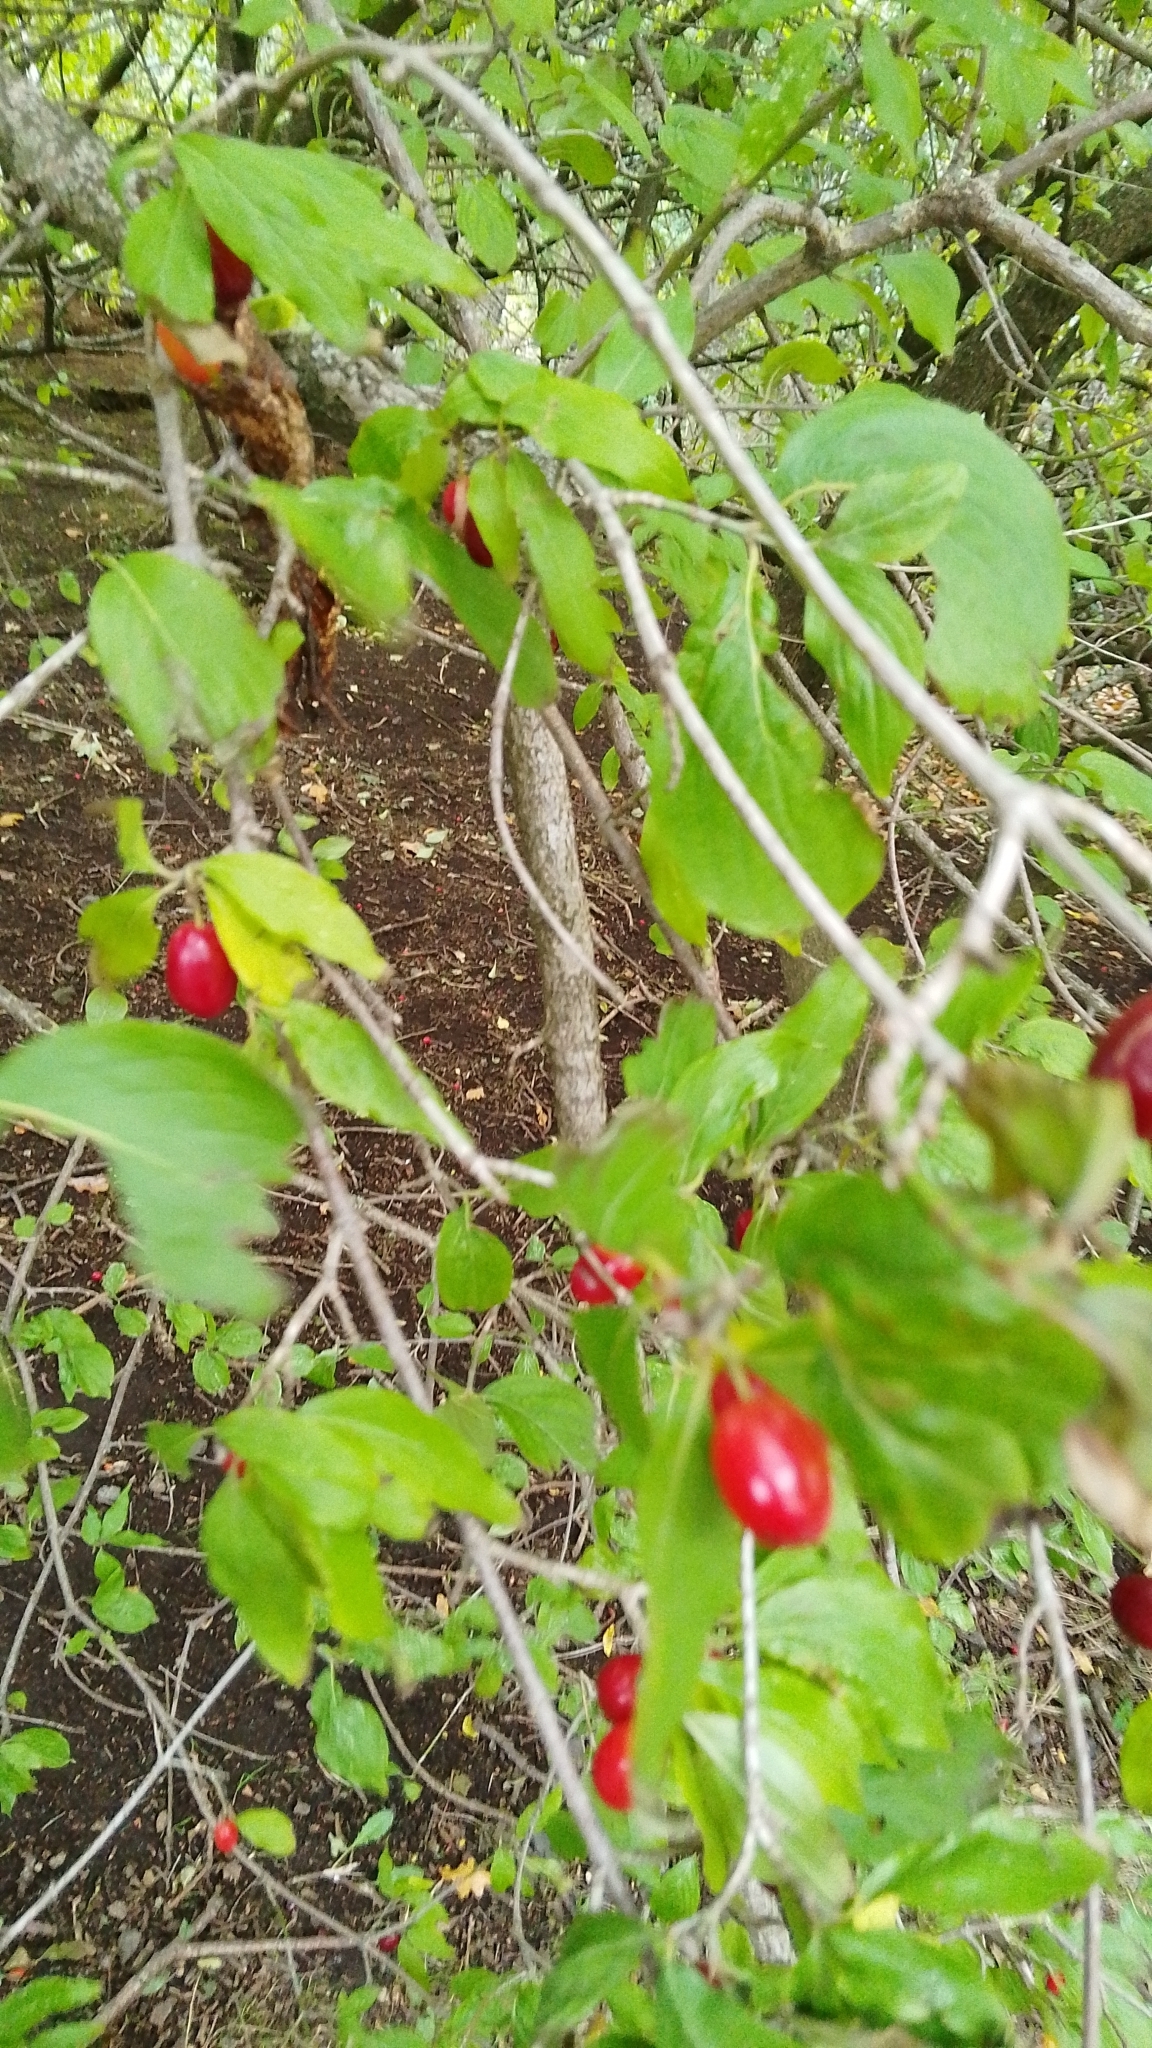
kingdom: Plantae
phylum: Tracheophyta
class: Magnoliopsida
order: Cornales
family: Cornaceae
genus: Cornus
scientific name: Cornus mas
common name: Cornelian-cherry
